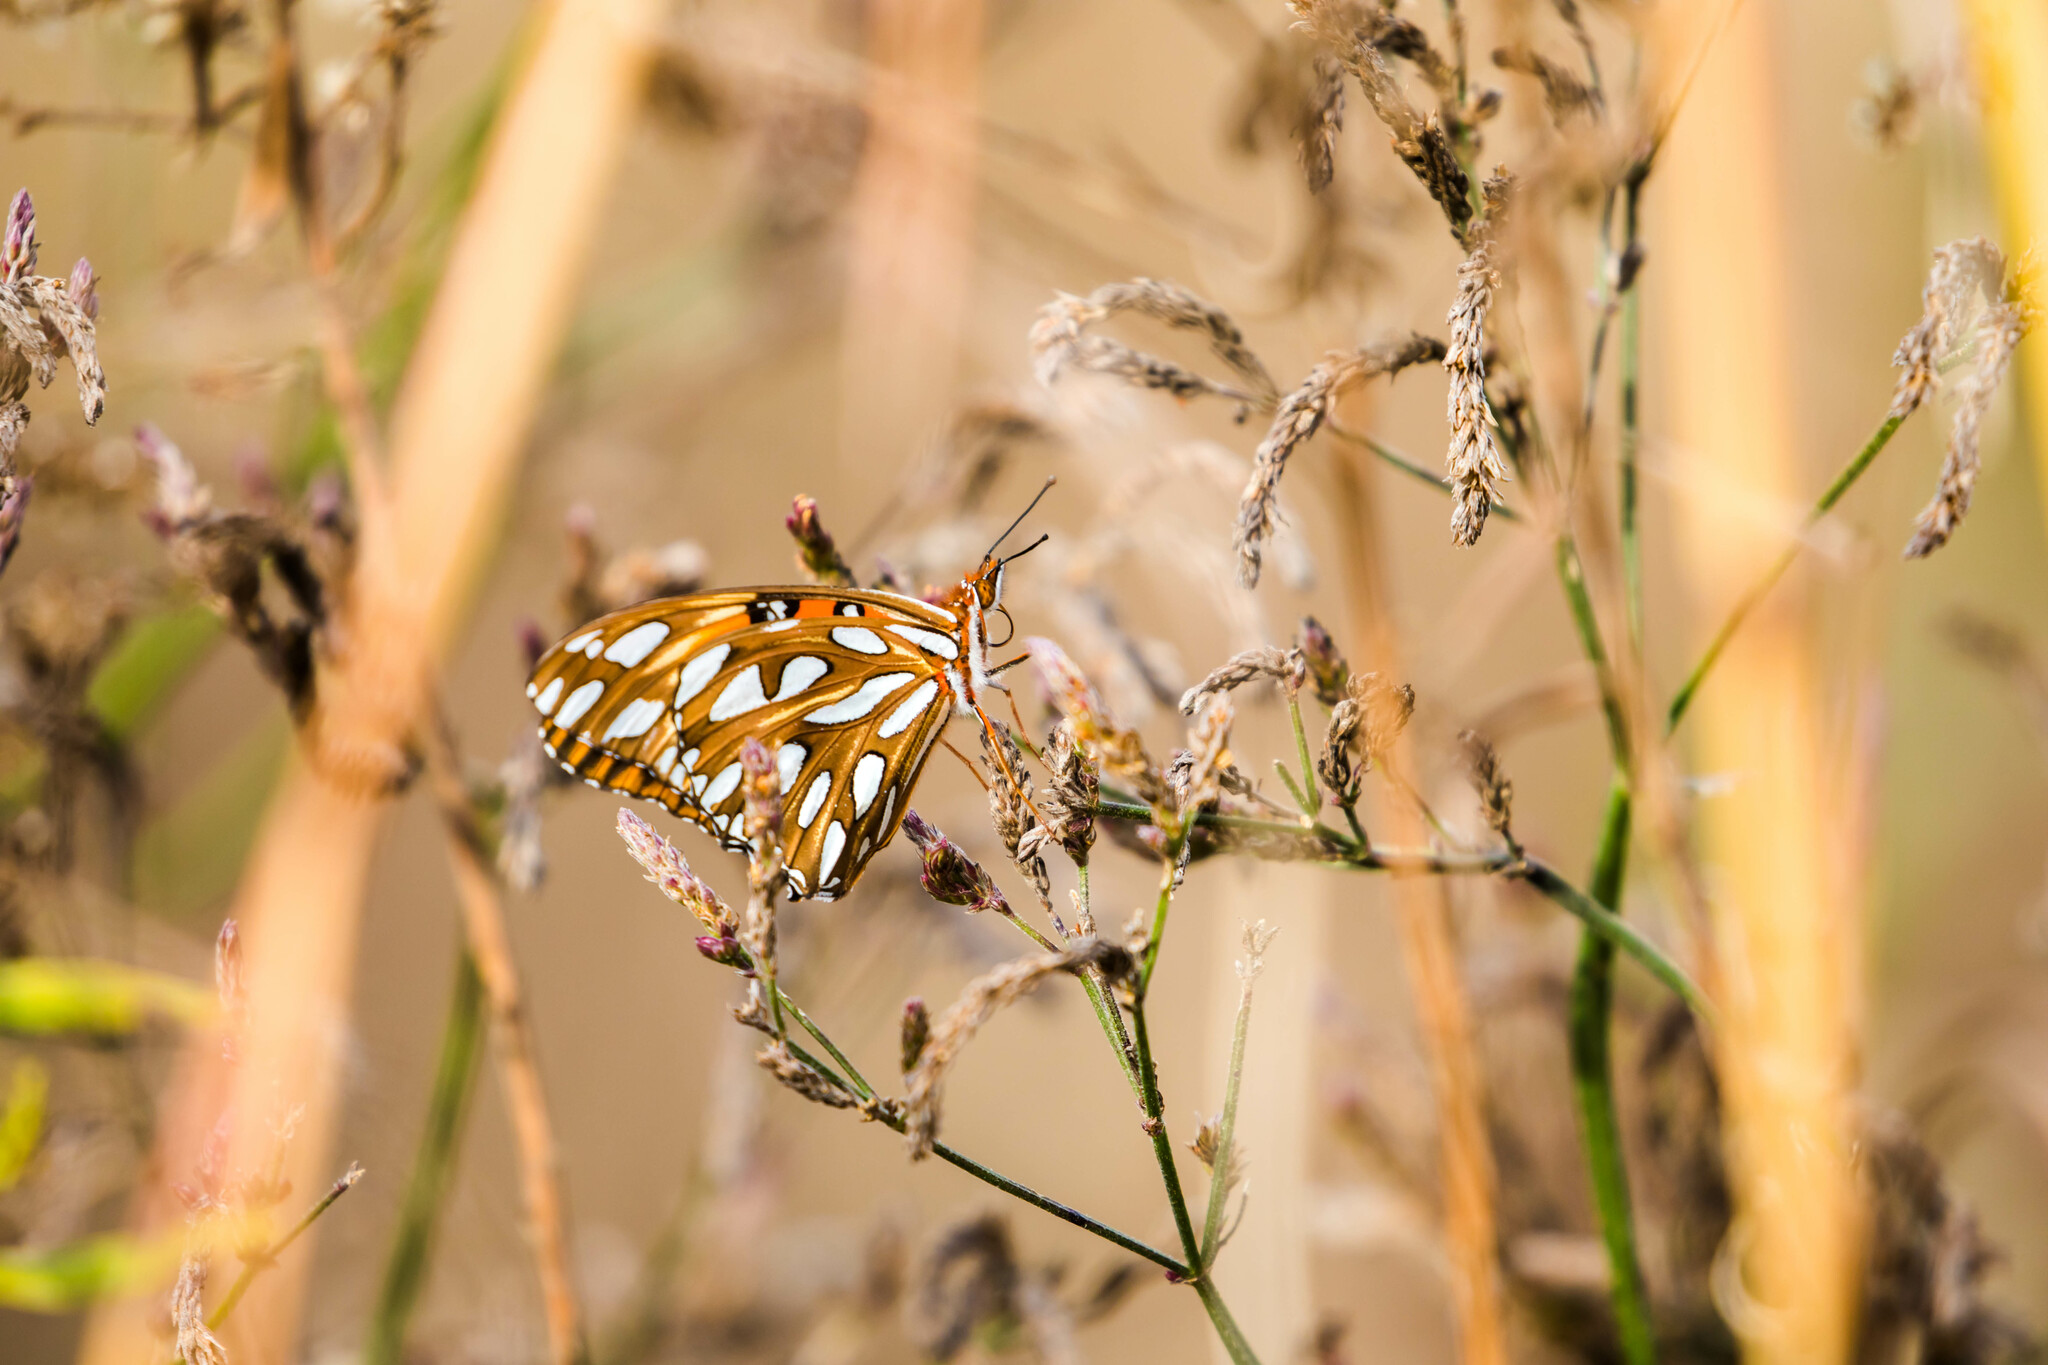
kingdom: Animalia
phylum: Arthropoda
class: Insecta
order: Lepidoptera
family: Nymphalidae
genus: Dione
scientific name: Dione vanillae
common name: Gulf fritillary
